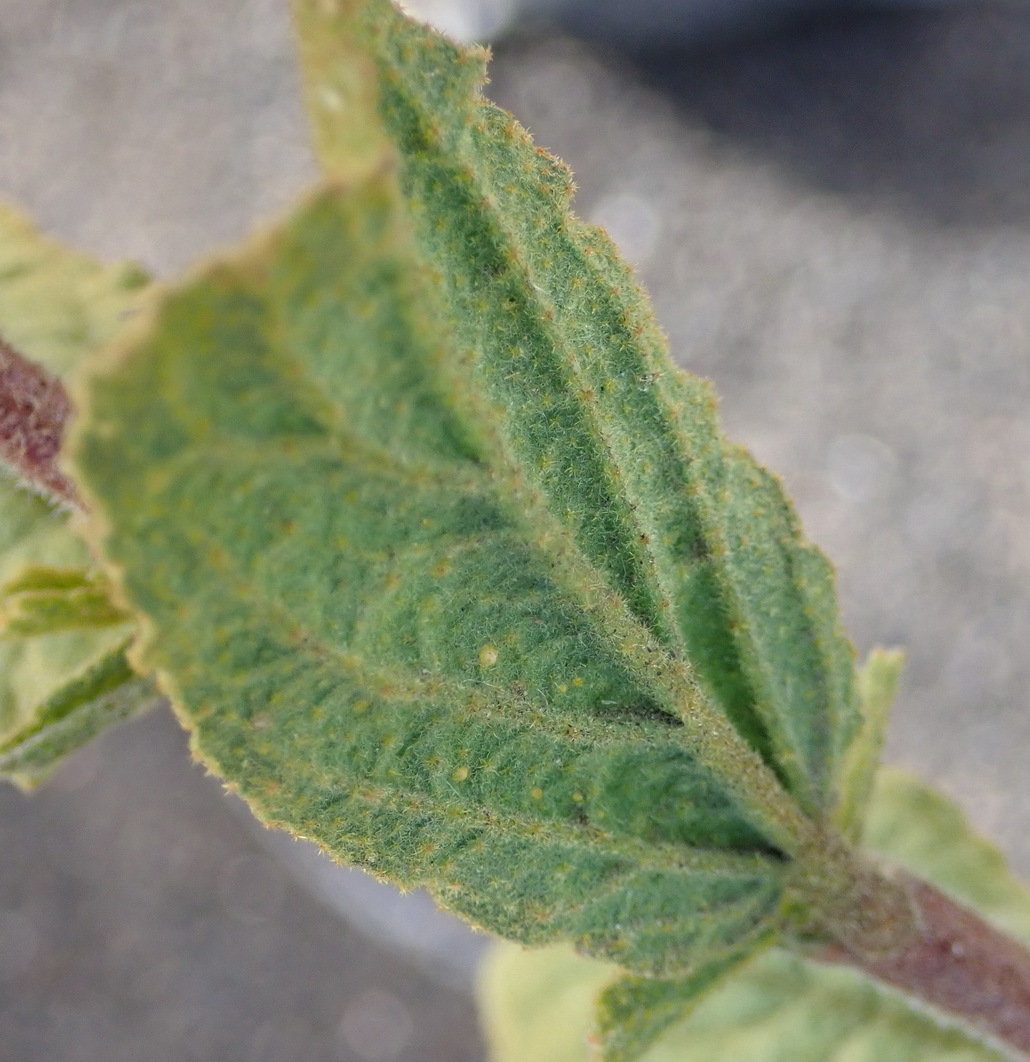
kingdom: Plantae
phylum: Tracheophyta
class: Magnoliopsida
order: Malvales
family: Malvaceae
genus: Hermannia
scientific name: Hermannia salviifolia
